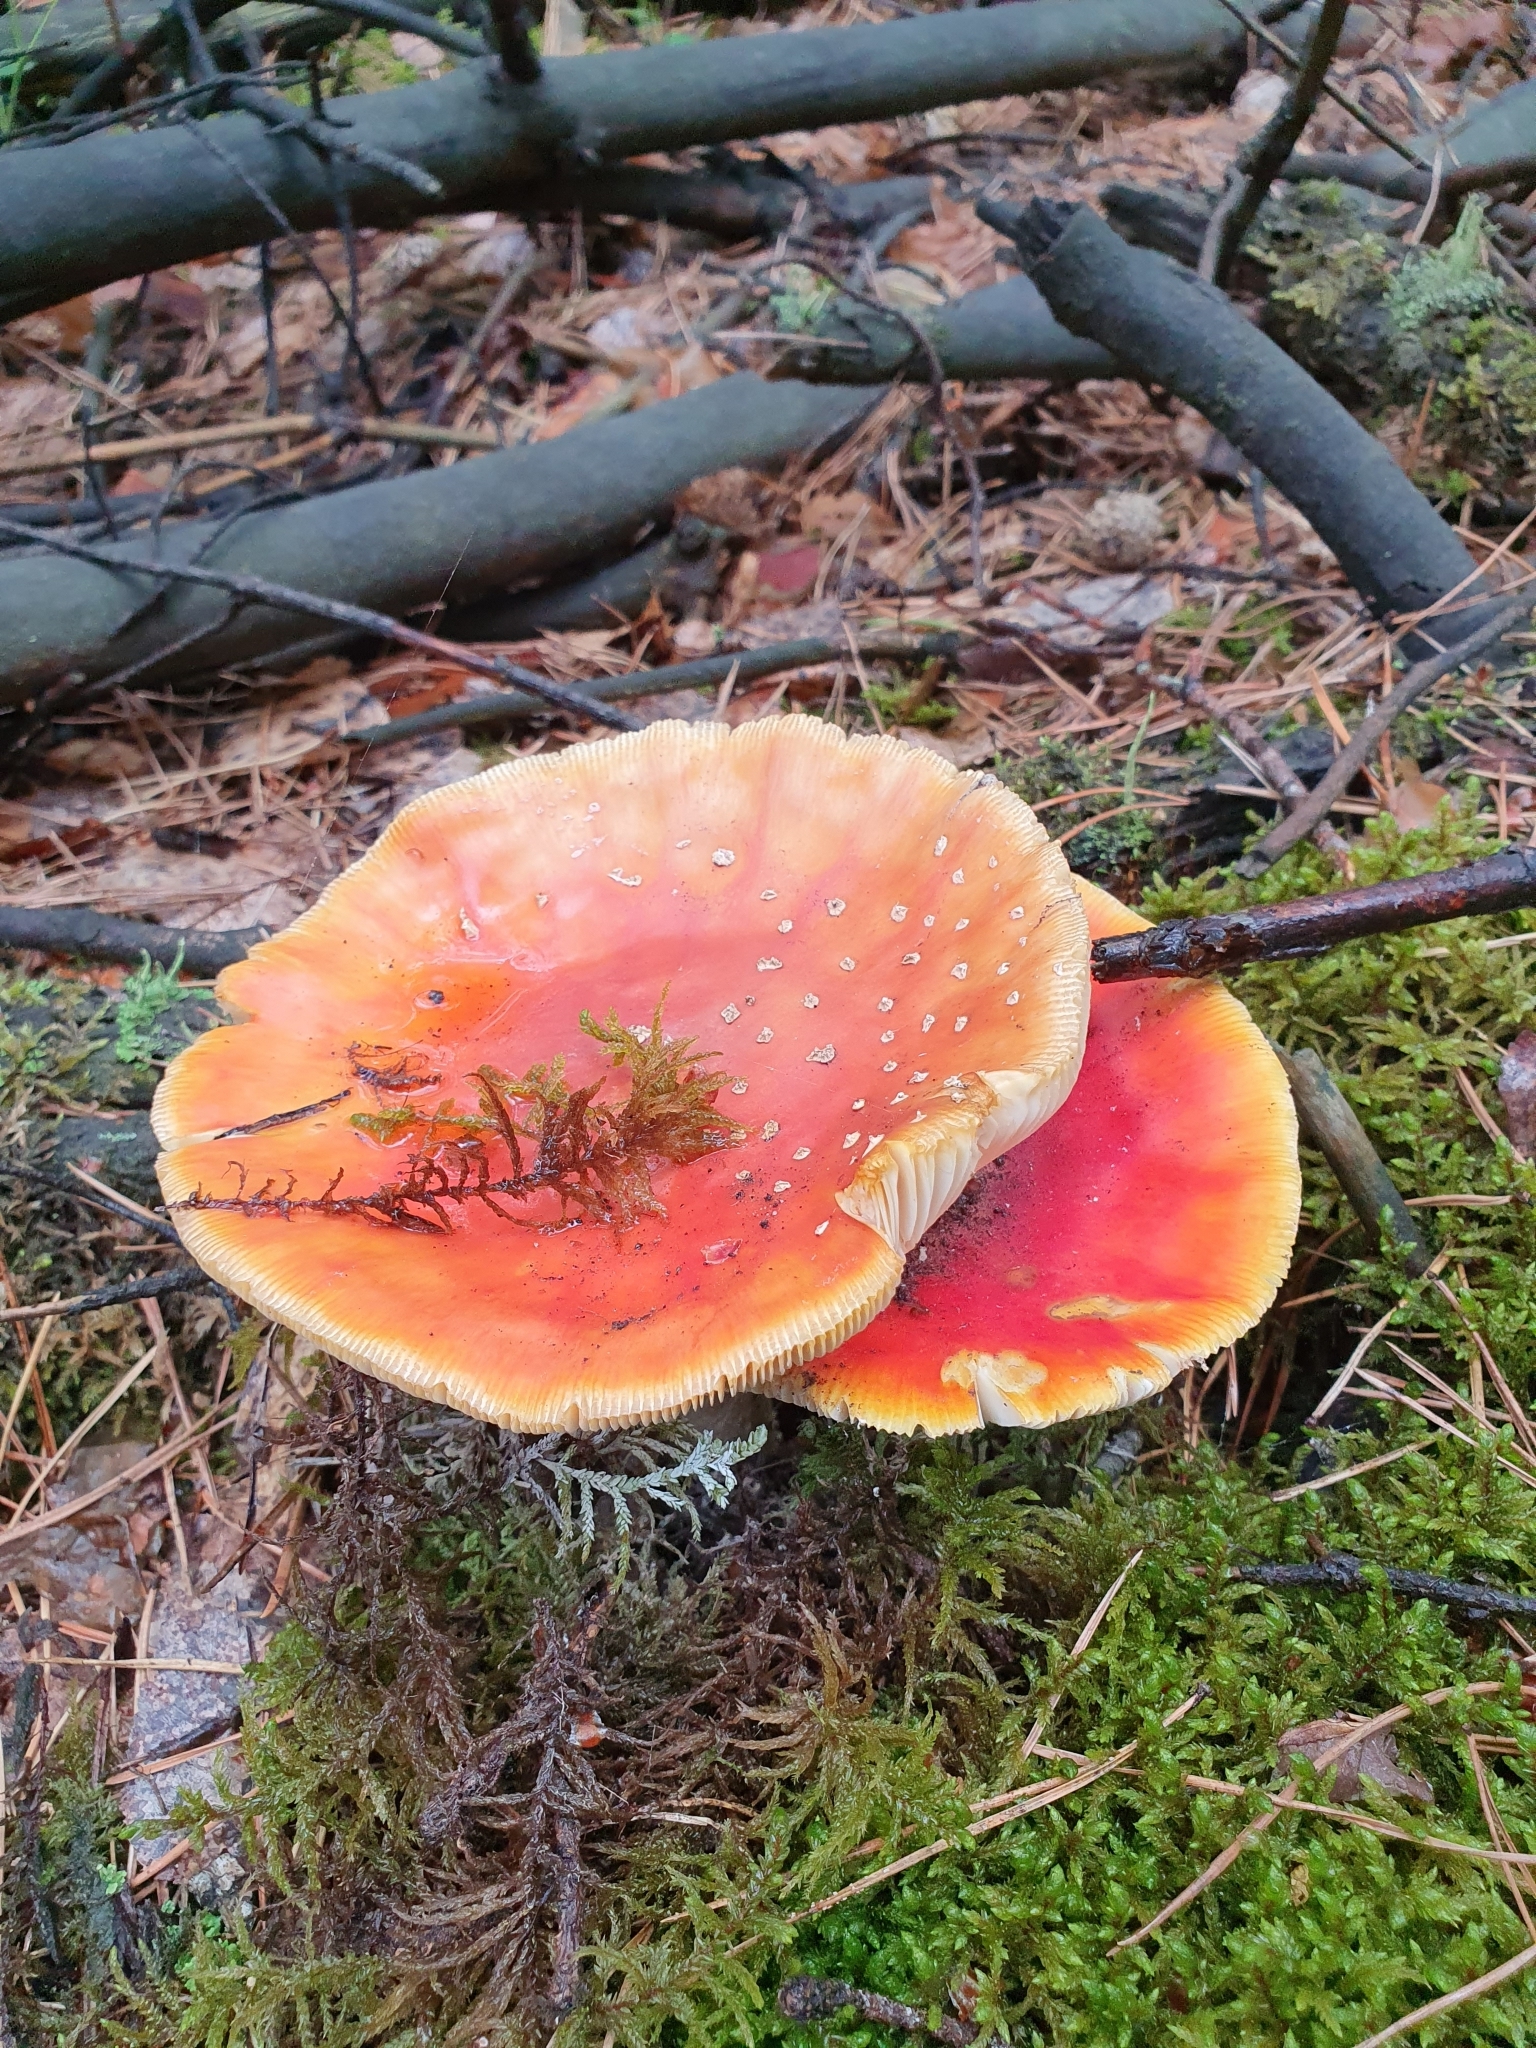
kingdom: Fungi
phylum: Basidiomycota
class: Agaricomycetes
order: Agaricales
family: Amanitaceae
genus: Amanita
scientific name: Amanita muscaria
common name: Fly agaric
